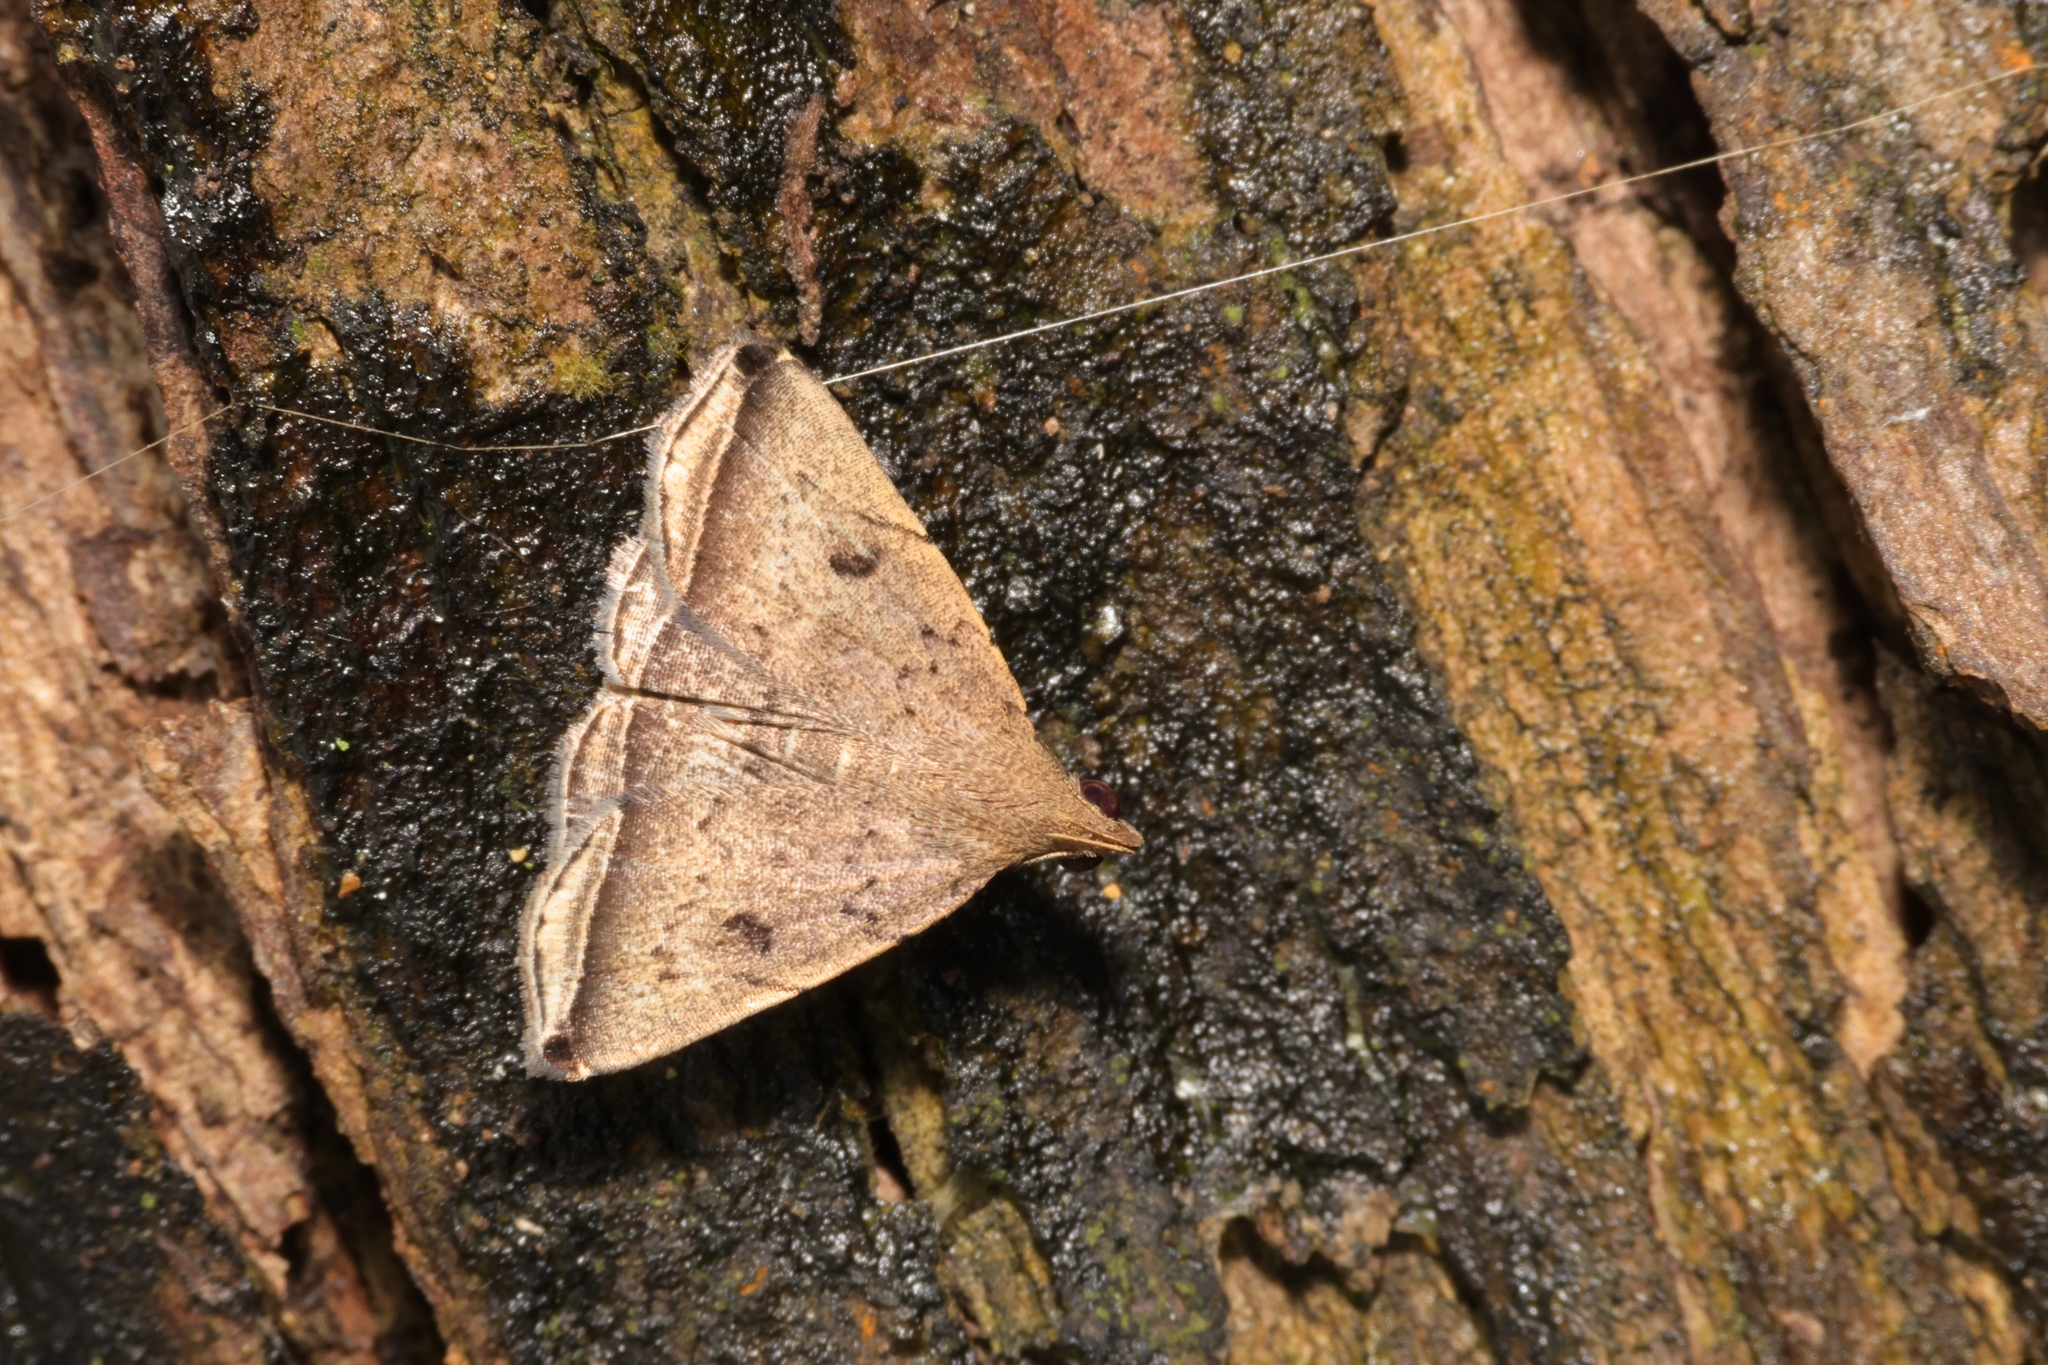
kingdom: Animalia
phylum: Arthropoda
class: Insecta
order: Lepidoptera
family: Erebidae
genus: Lysimelia
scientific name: Lysimelia lucida
